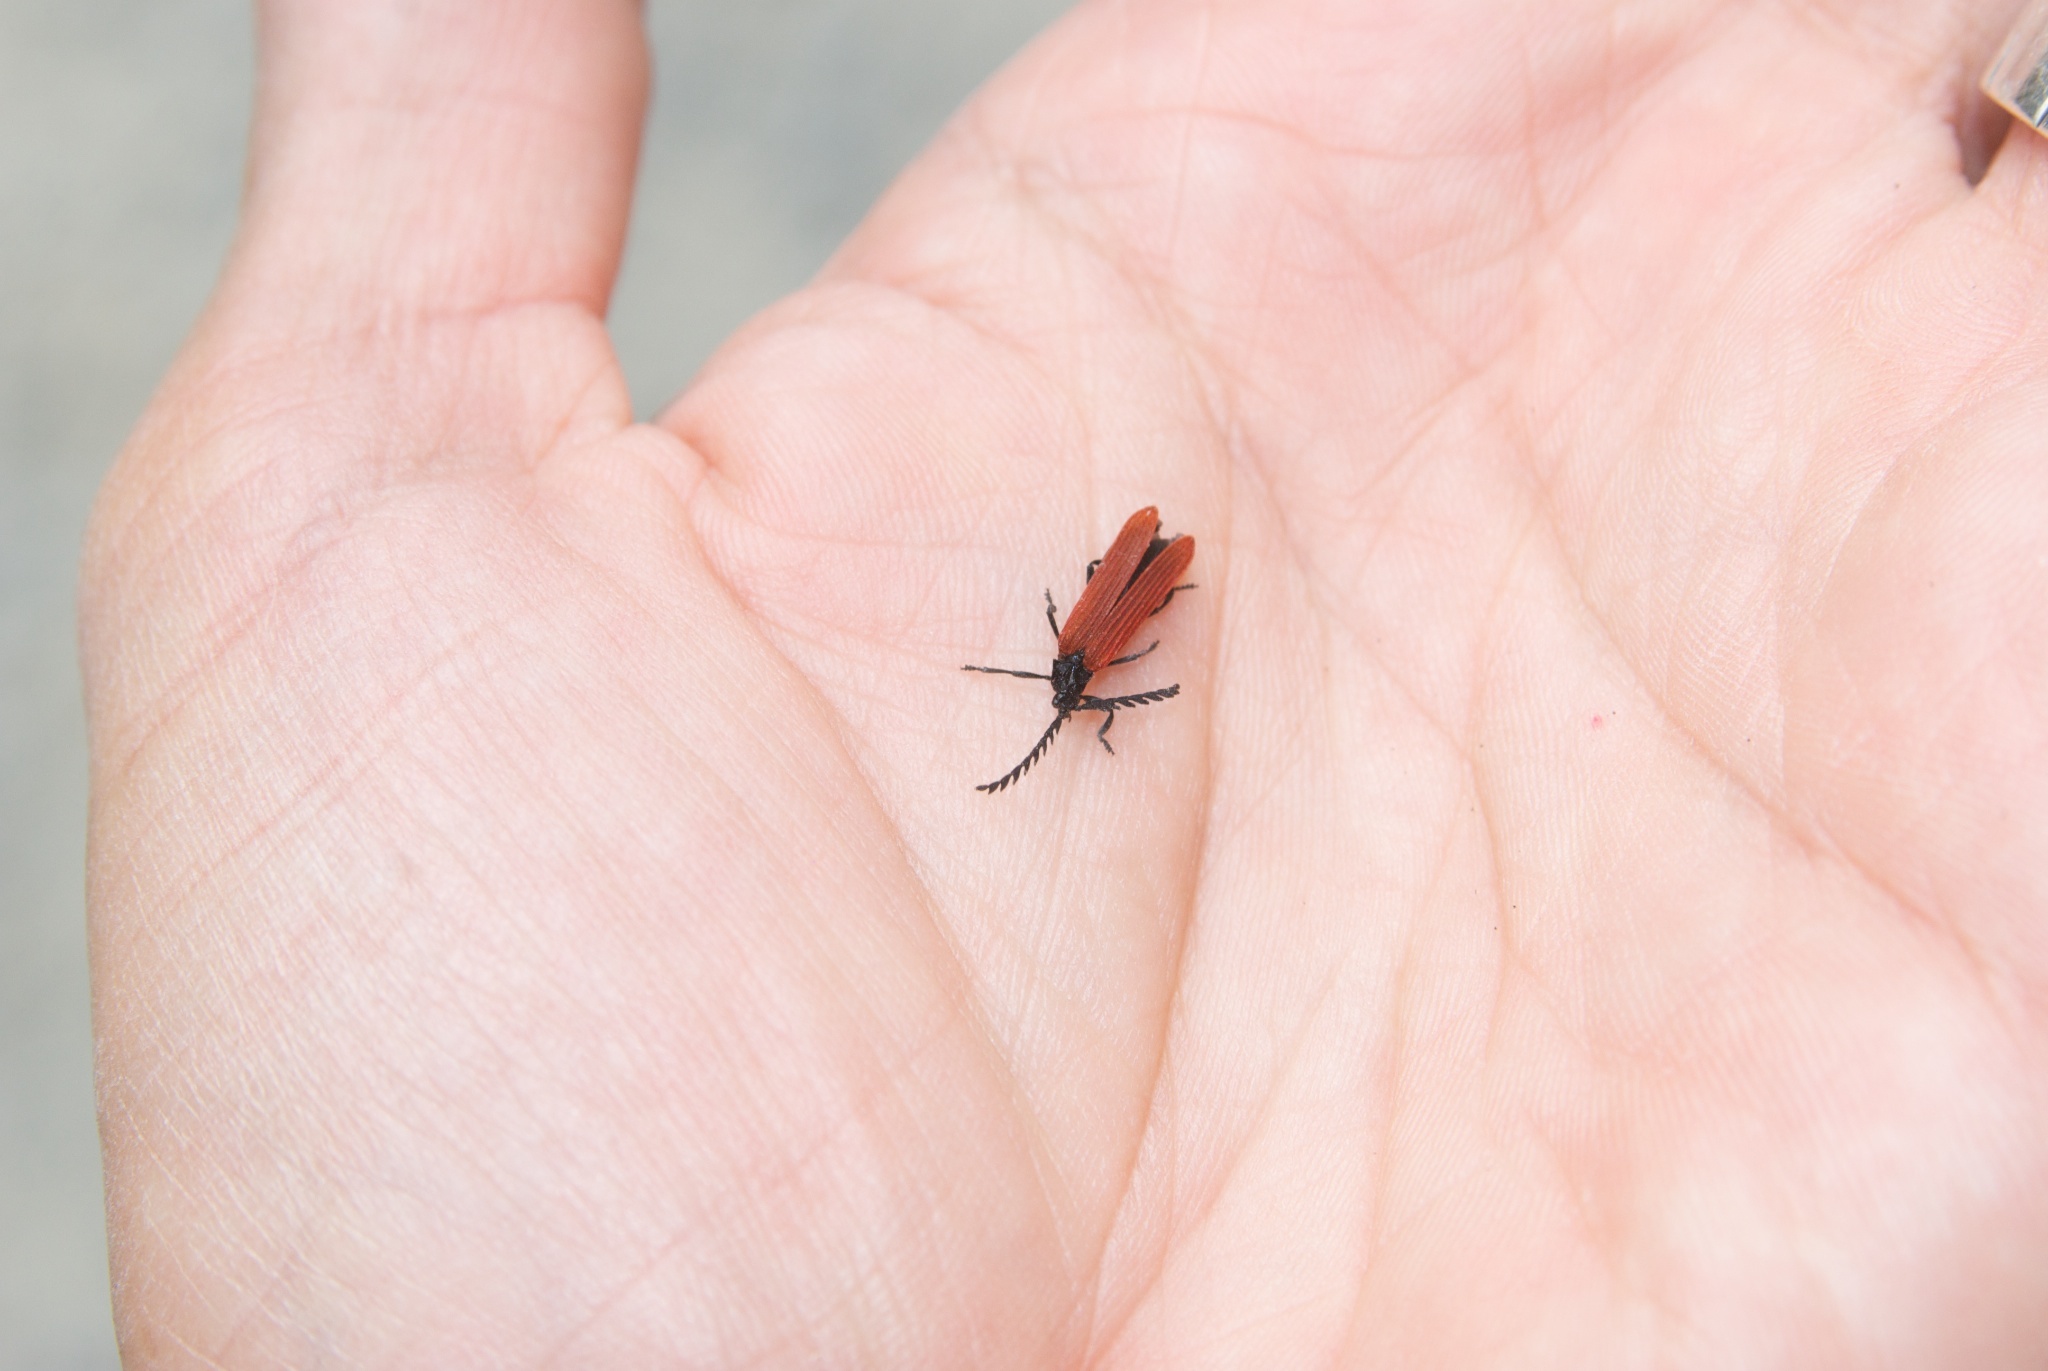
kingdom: Animalia
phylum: Arthropoda
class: Insecta
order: Coleoptera
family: Lycidae
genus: Porrostoma
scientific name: Porrostoma rufipenne
